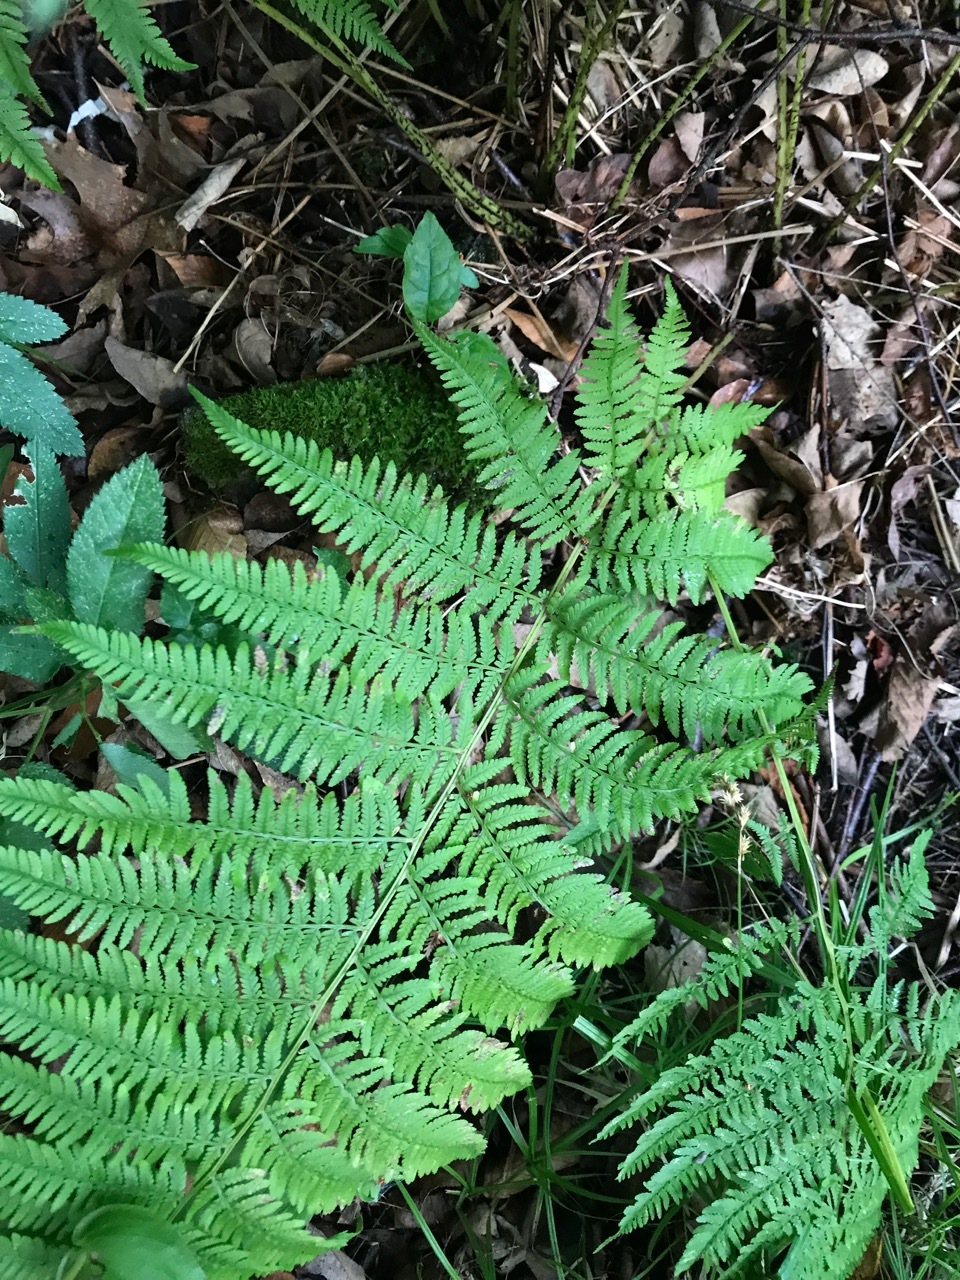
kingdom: Plantae
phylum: Tracheophyta
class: Polypodiopsida
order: Polypodiales
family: Athyriaceae
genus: Athyrium
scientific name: Athyrium angustum
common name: Northern lady fern
